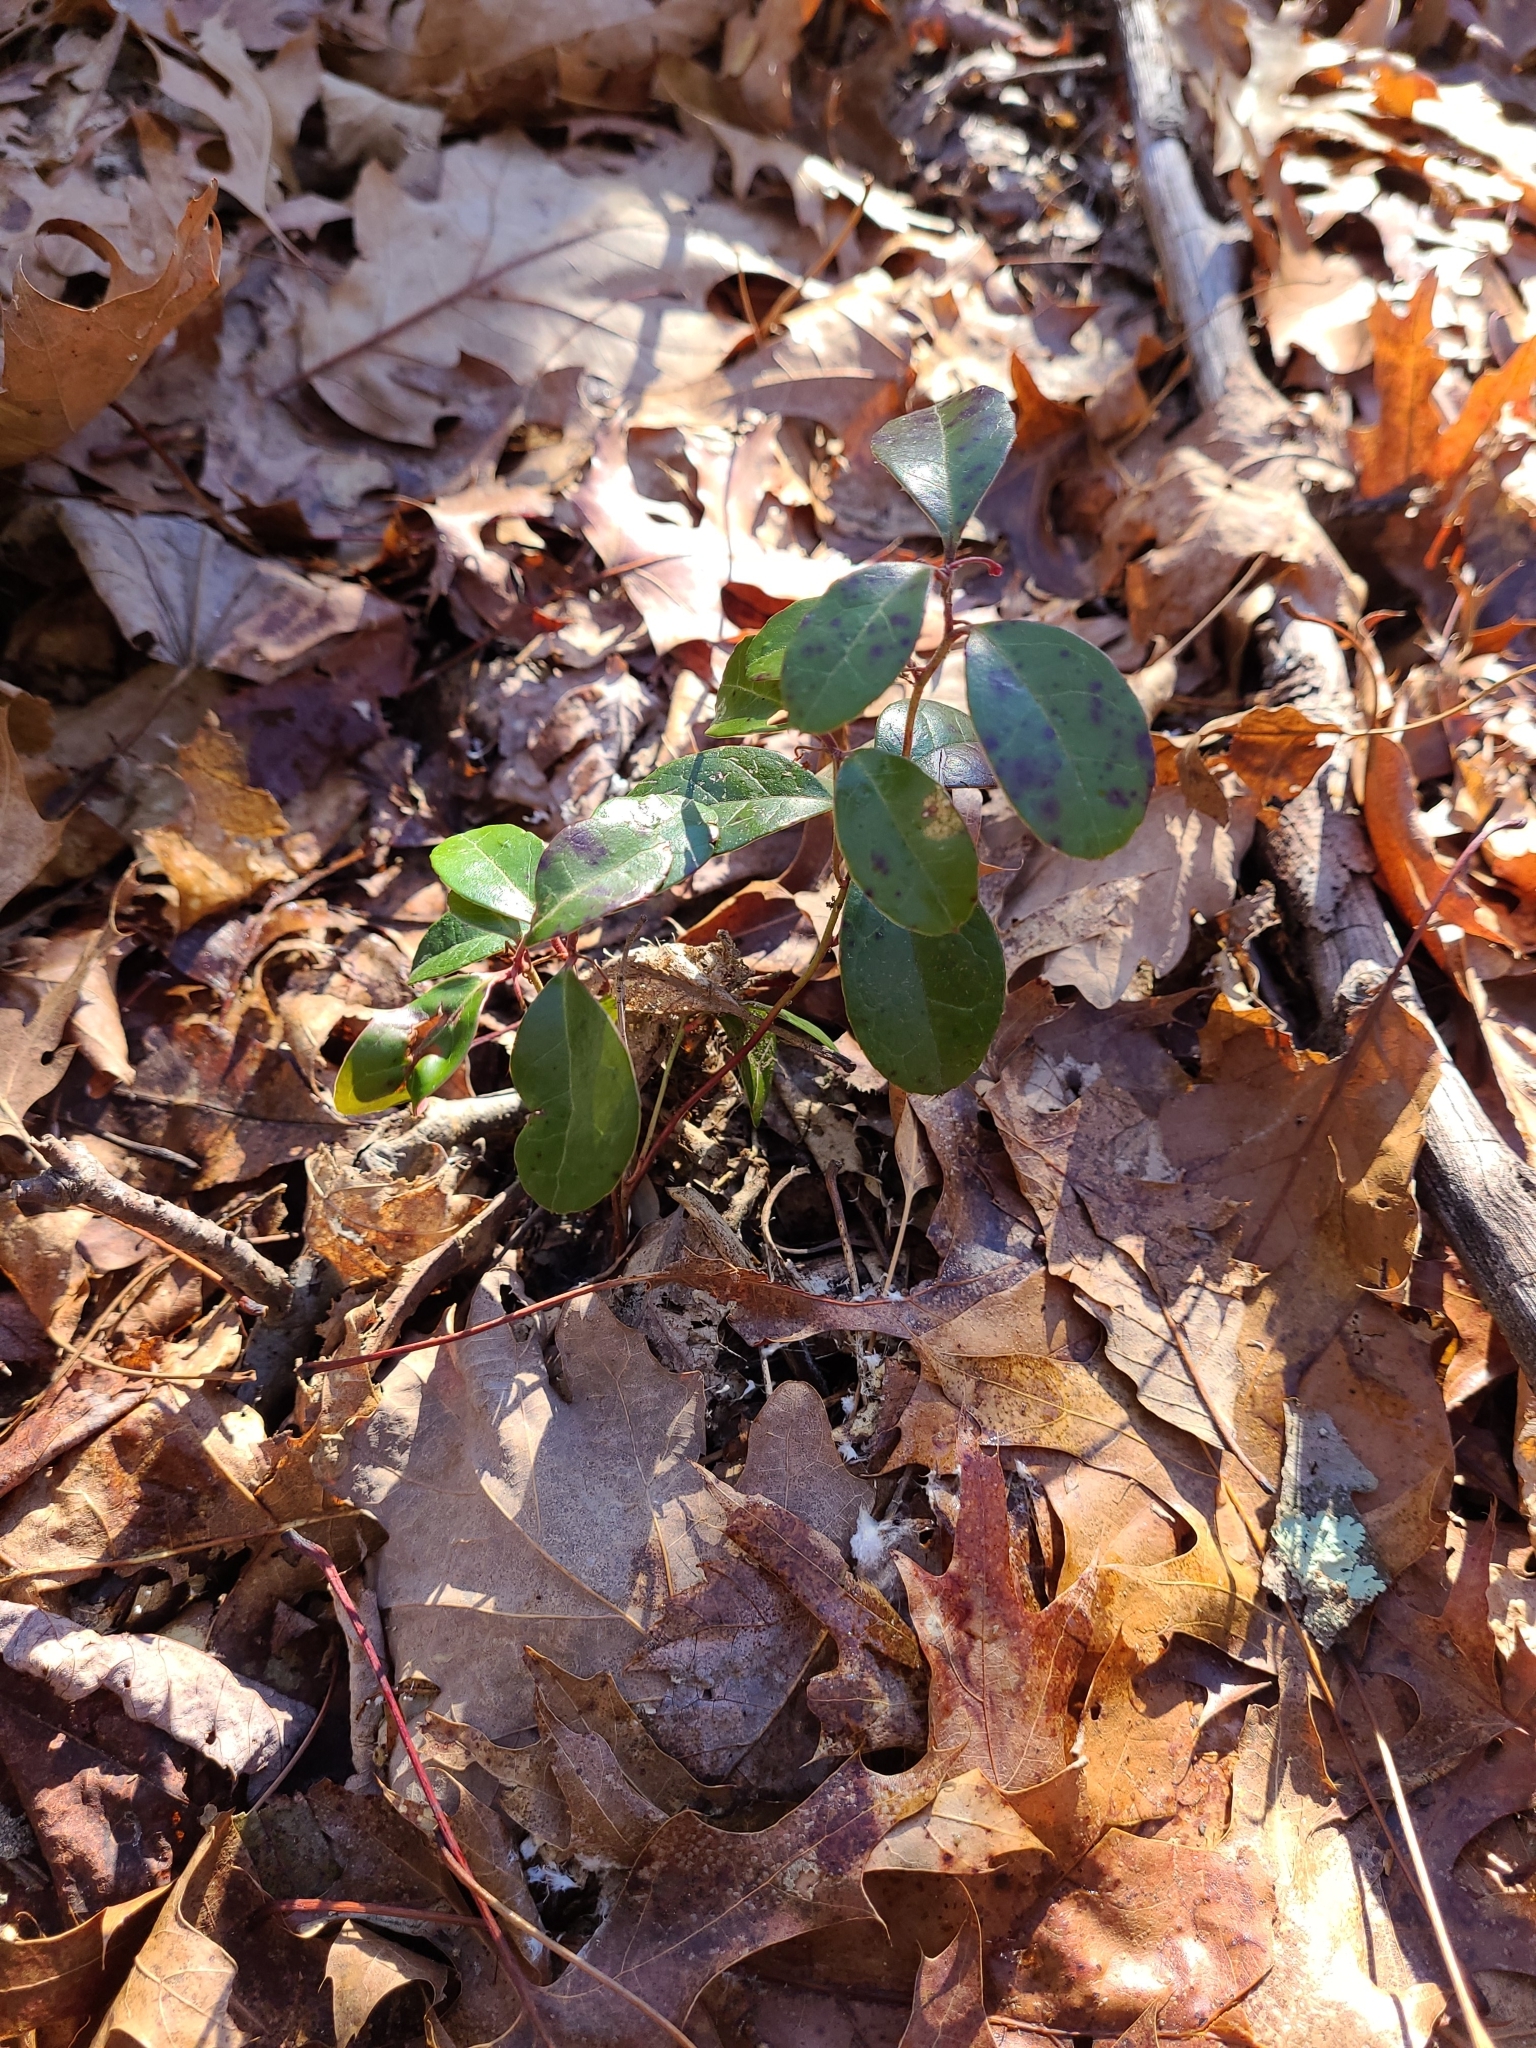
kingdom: Plantae
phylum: Tracheophyta
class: Magnoliopsida
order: Ericales
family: Ericaceae
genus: Gaultheria
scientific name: Gaultheria procumbens
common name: Checkerberry
